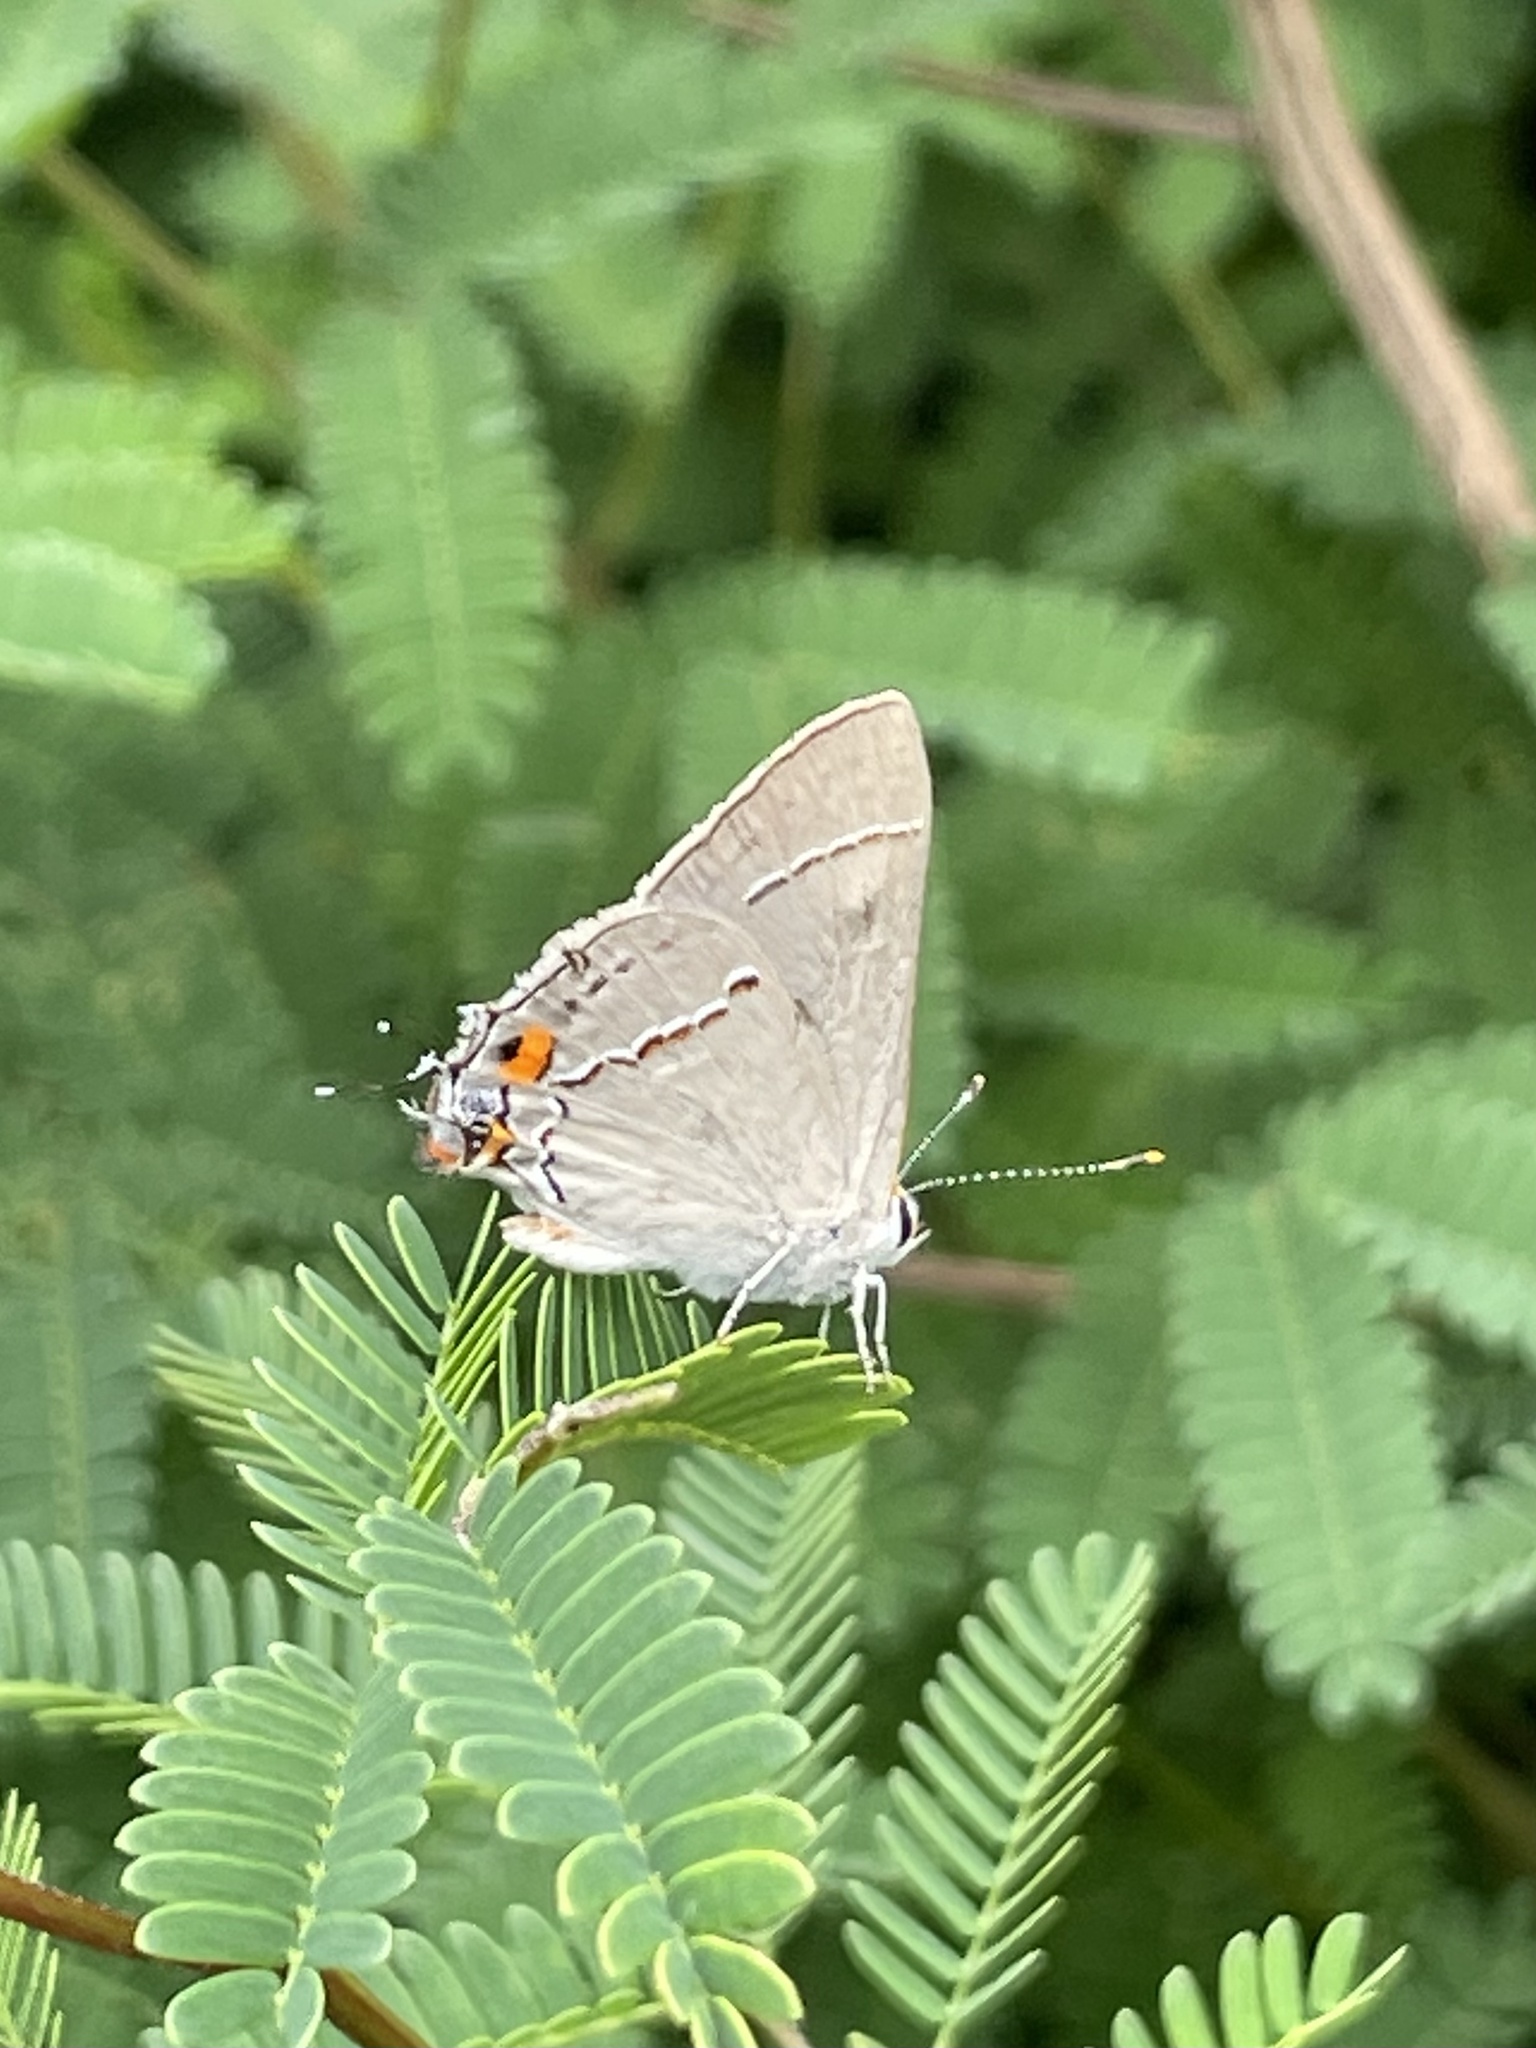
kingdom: Animalia
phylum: Arthropoda
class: Insecta
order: Lepidoptera
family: Lycaenidae
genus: Strymon
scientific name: Strymon melinus
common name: Gray hairstreak
